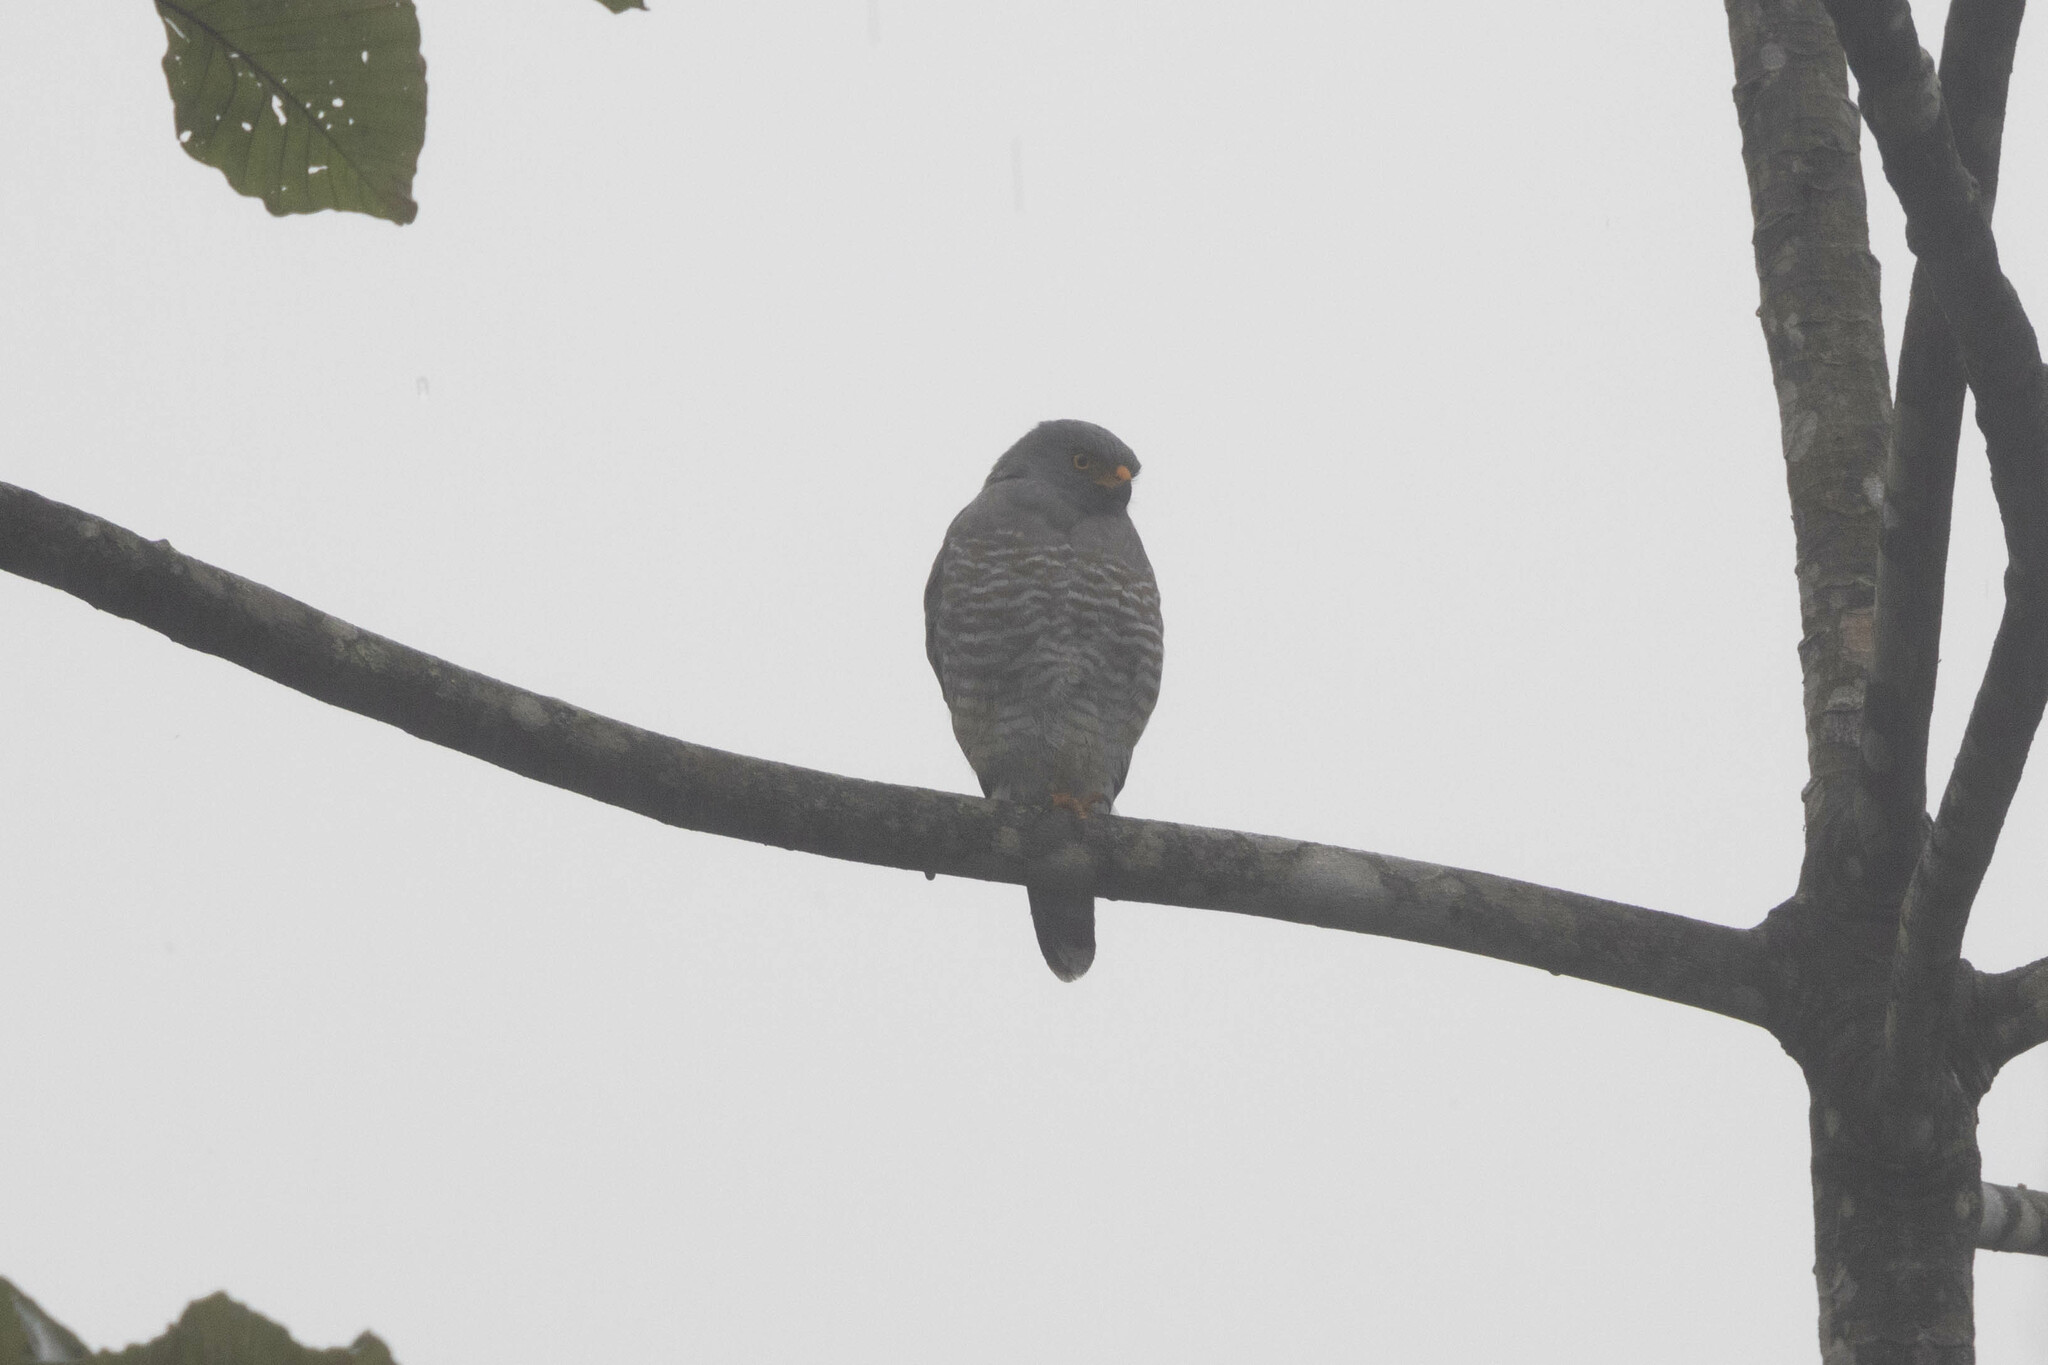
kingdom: Animalia
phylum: Chordata
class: Aves
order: Accipitriformes
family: Accipitridae
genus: Rupornis
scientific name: Rupornis magnirostris
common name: Roadside hawk
